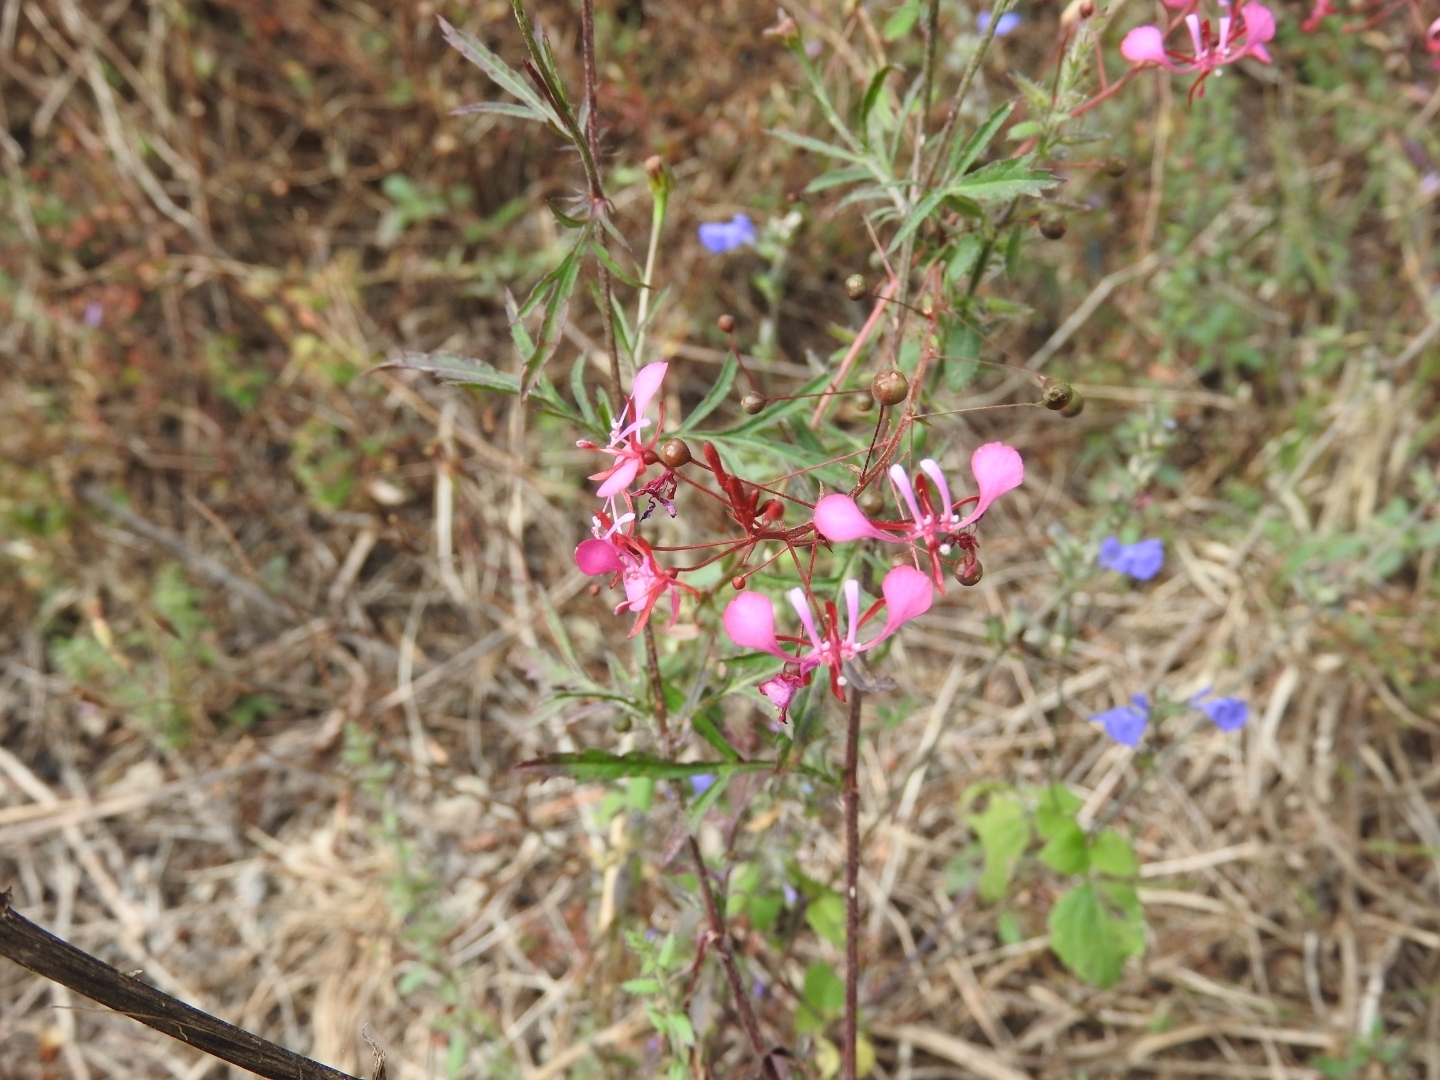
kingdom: Plantae
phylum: Tracheophyta
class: Magnoliopsida
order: Myrtales
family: Onagraceae
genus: Lopezia
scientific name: Lopezia racemosa
